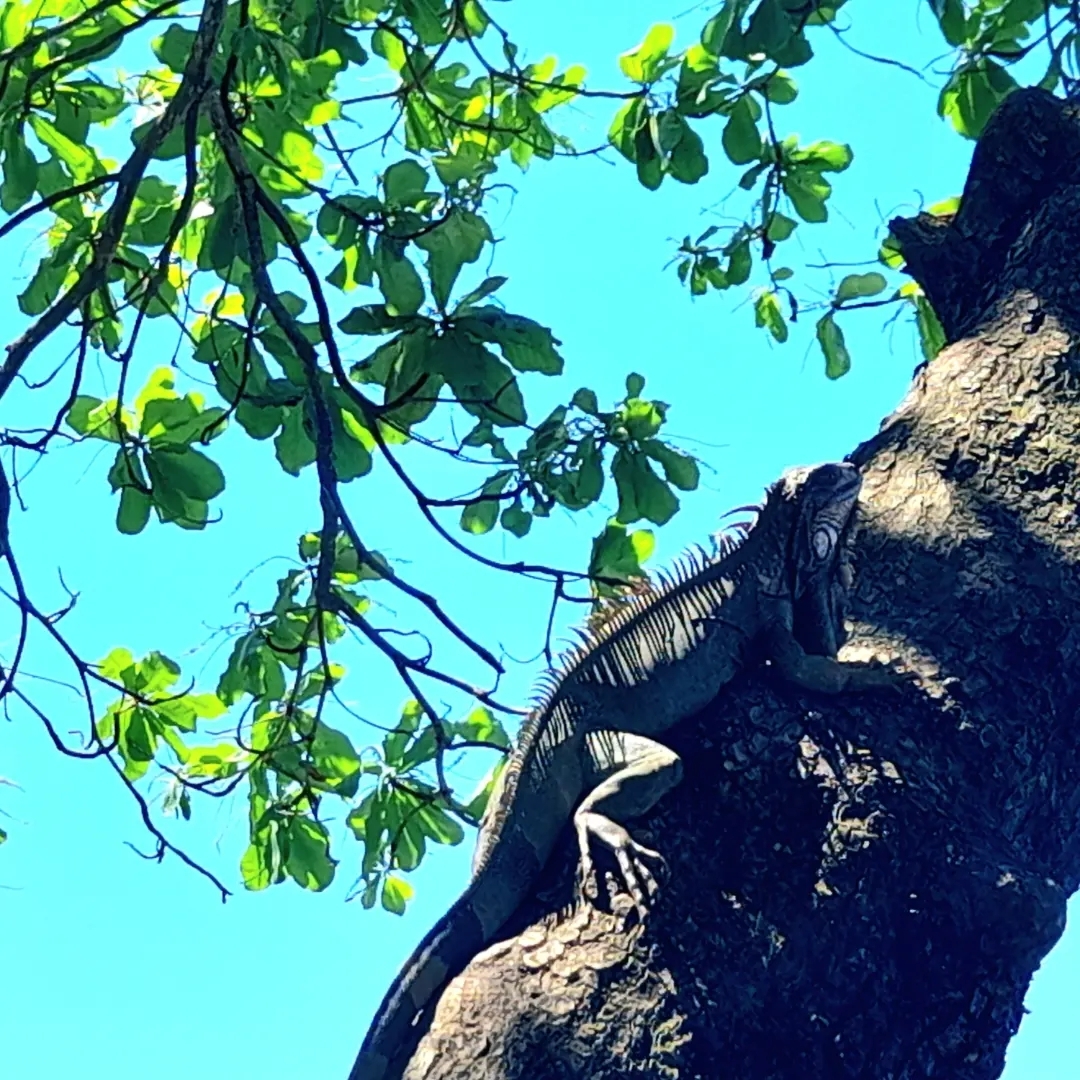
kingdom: Animalia
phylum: Chordata
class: Squamata
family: Iguanidae
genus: Iguana
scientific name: Iguana iguana
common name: Green iguana
